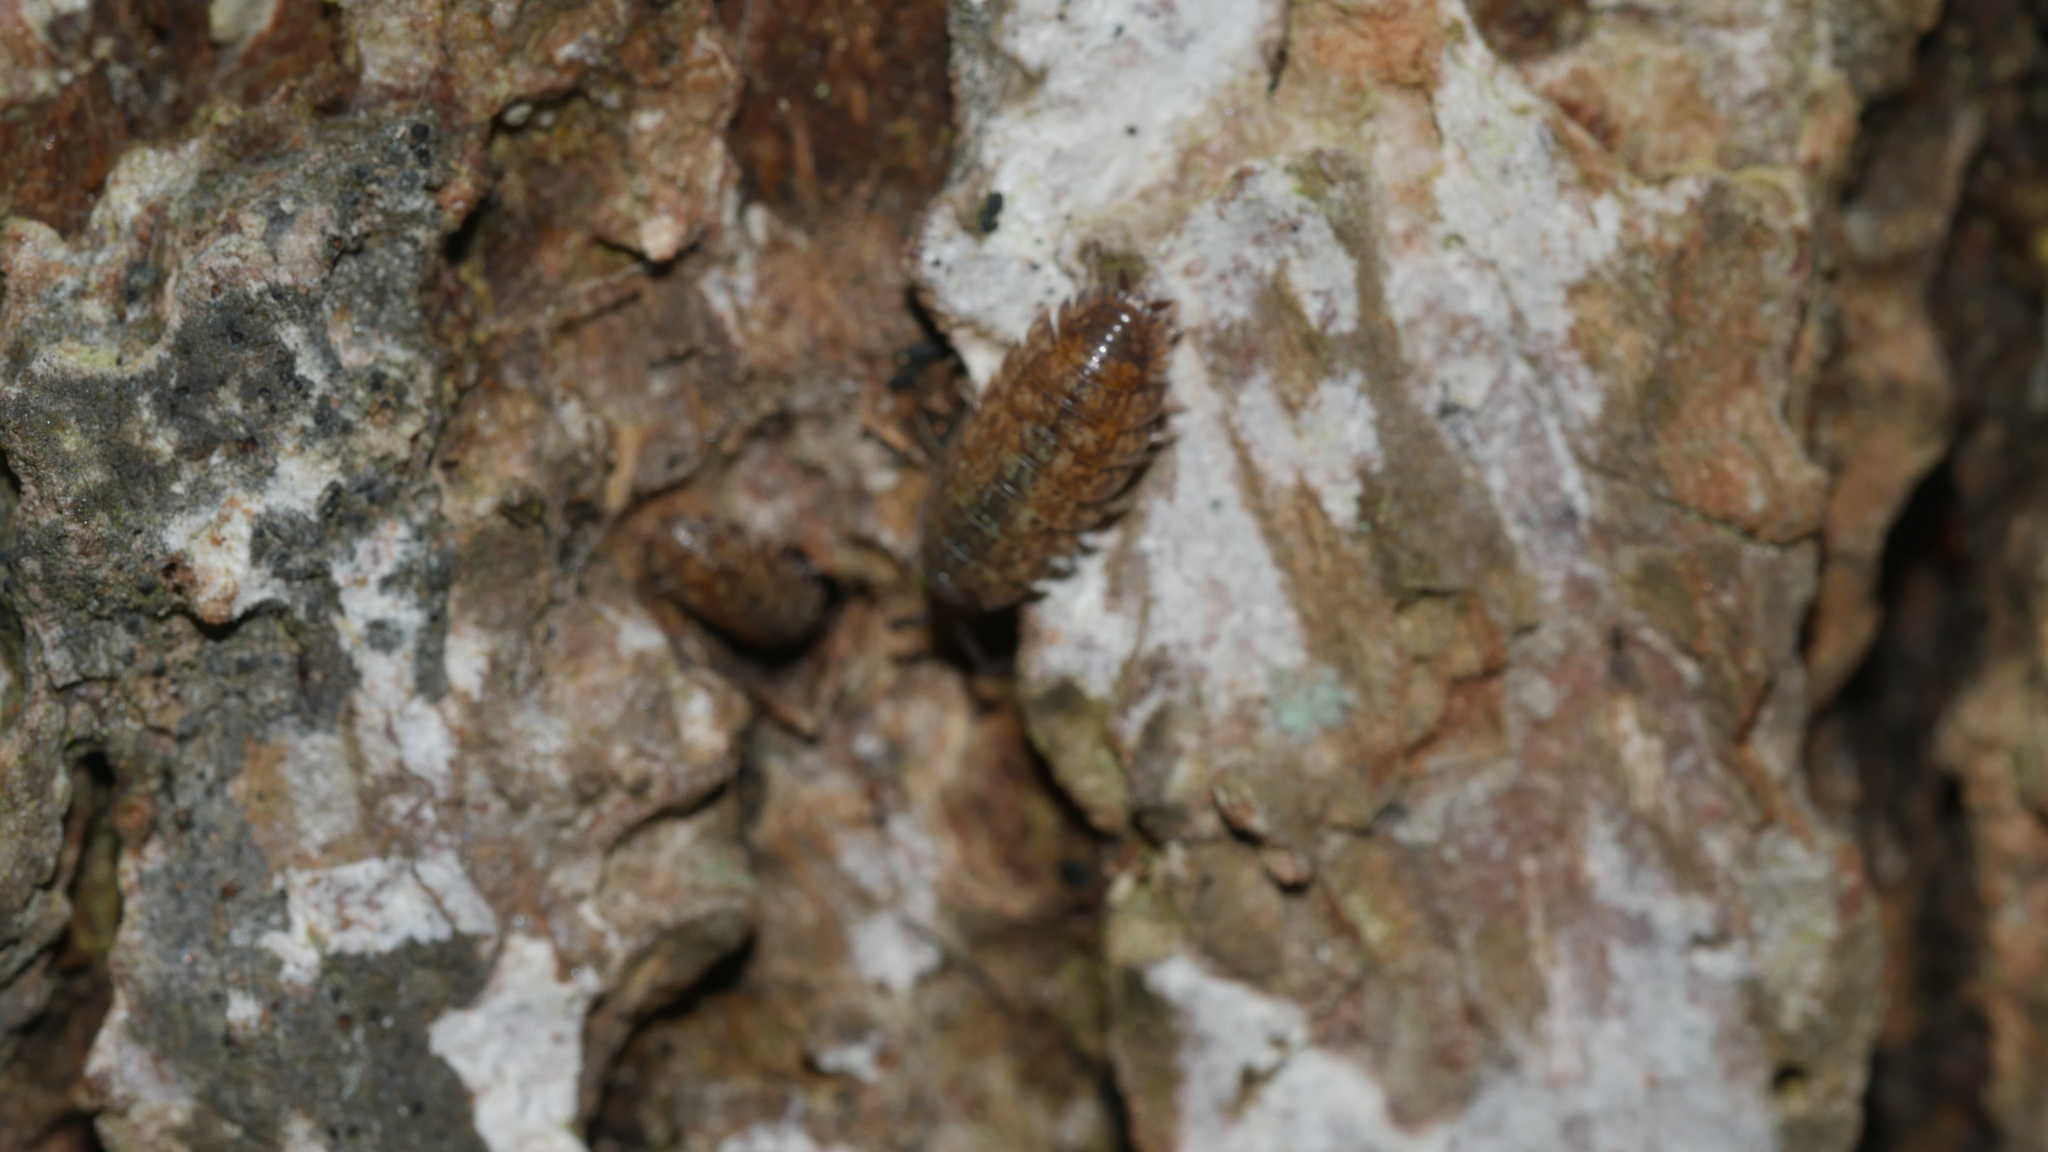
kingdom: Animalia
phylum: Arthropoda
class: Malacostraca
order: Isopoda
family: Porcellionidae
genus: Porcellio
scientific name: Porcellio scaber
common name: Common rough woodlouse
